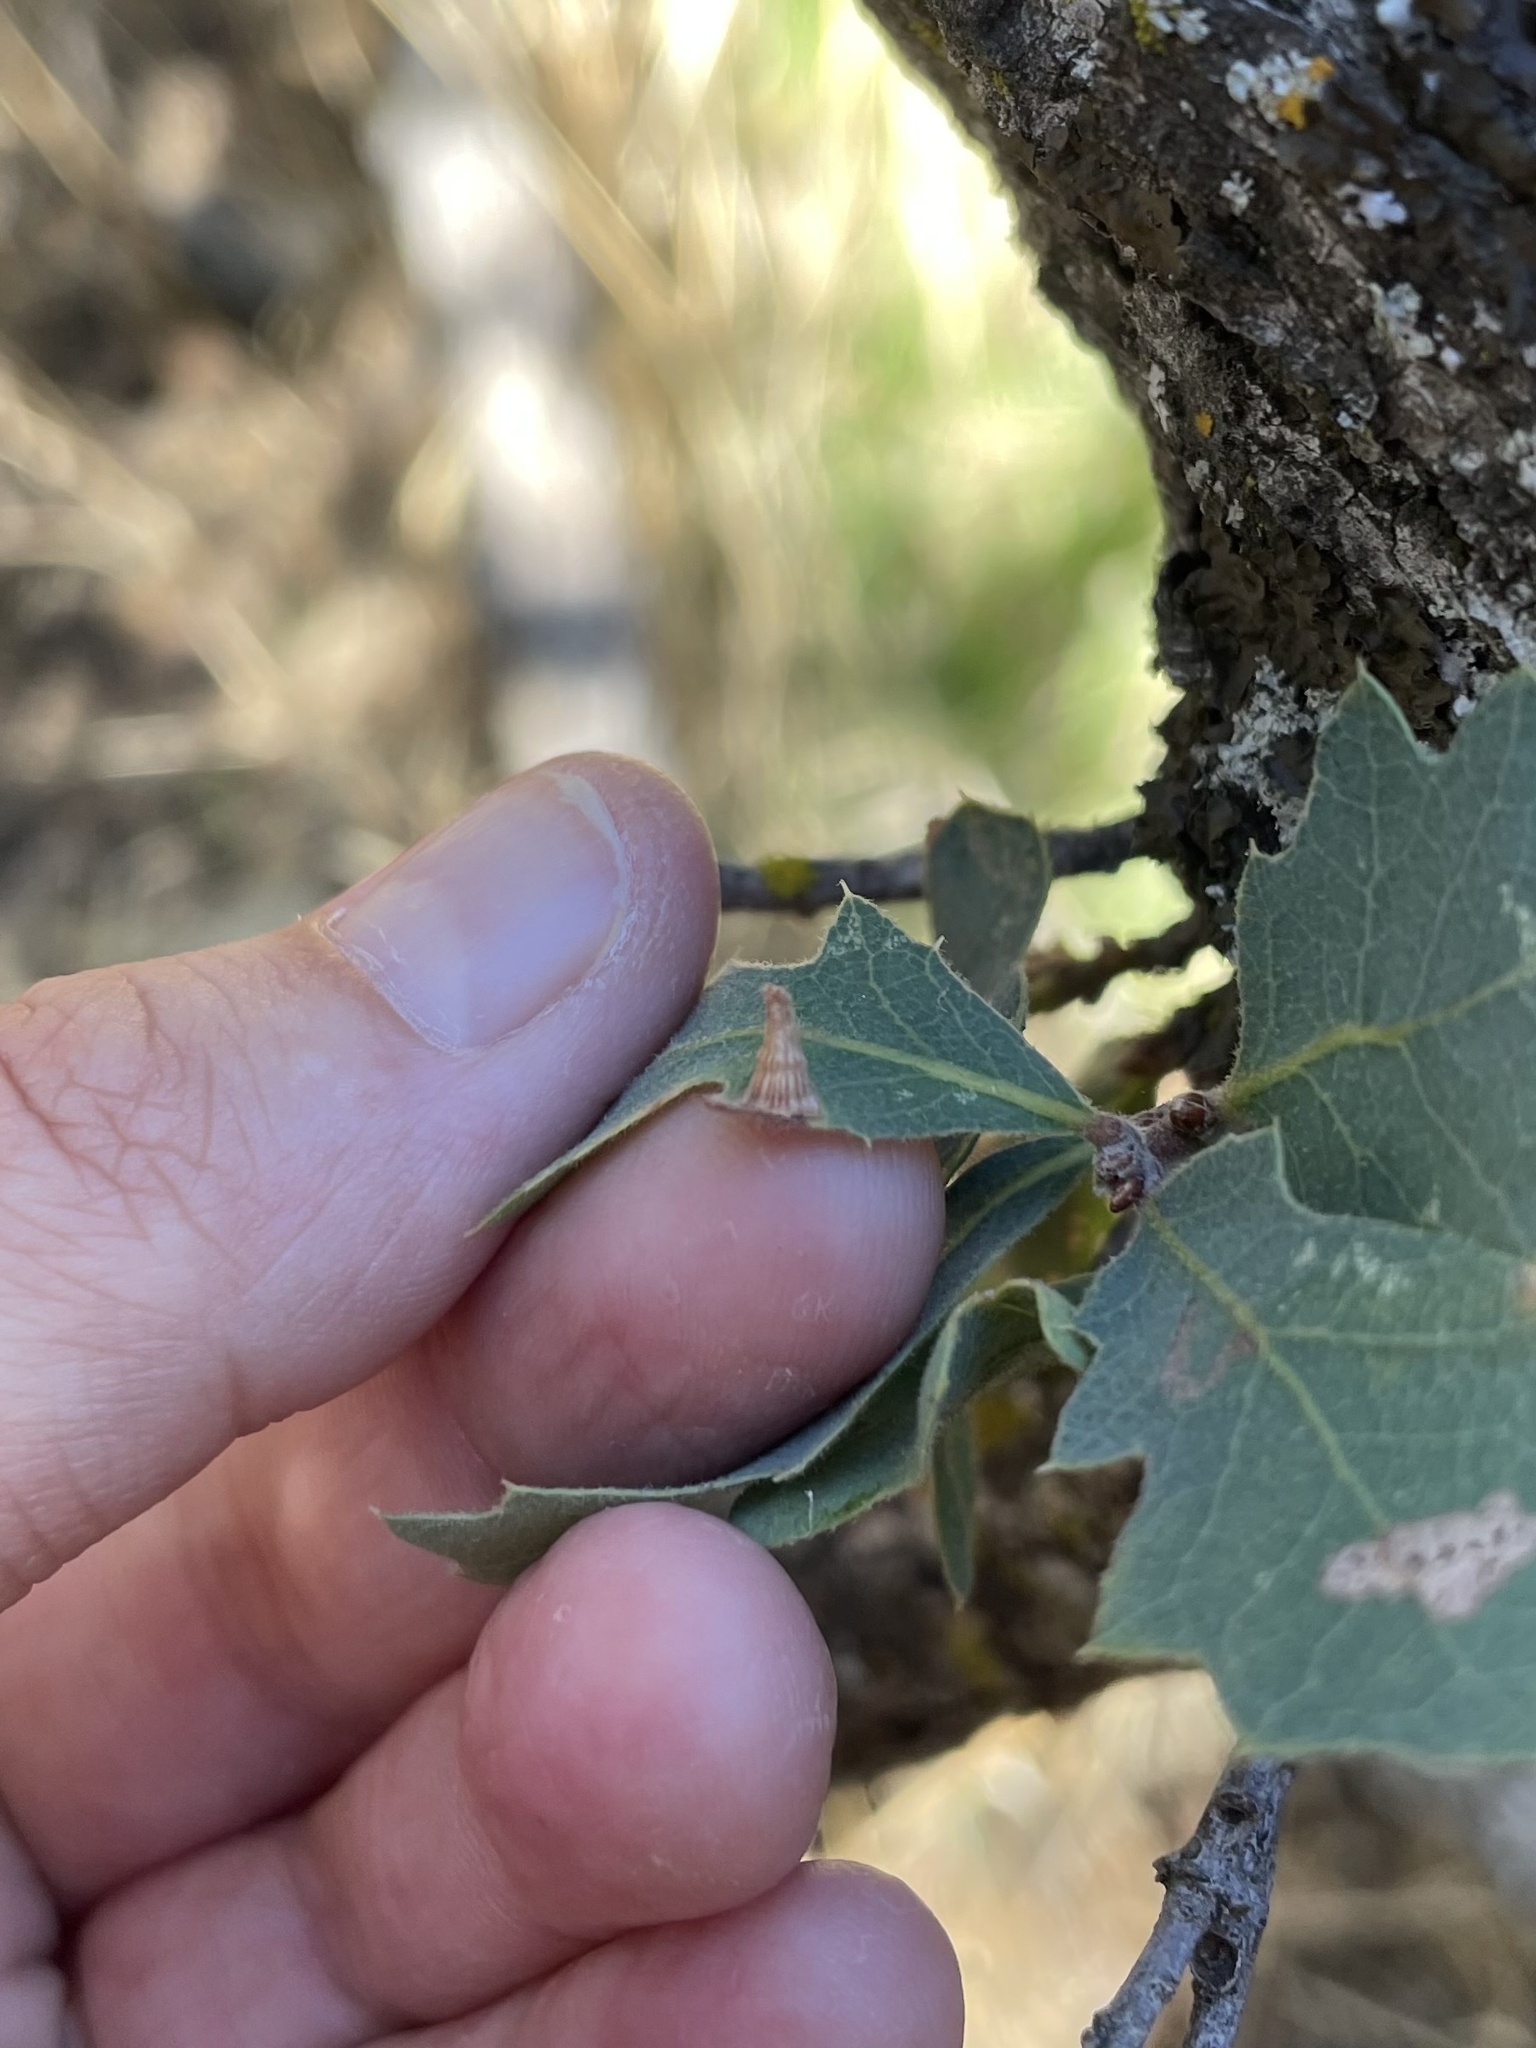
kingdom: Animalia
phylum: Arthropoda
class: Insecta
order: Hymenoptera
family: Cynipidae
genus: Andricus
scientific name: Andricus
